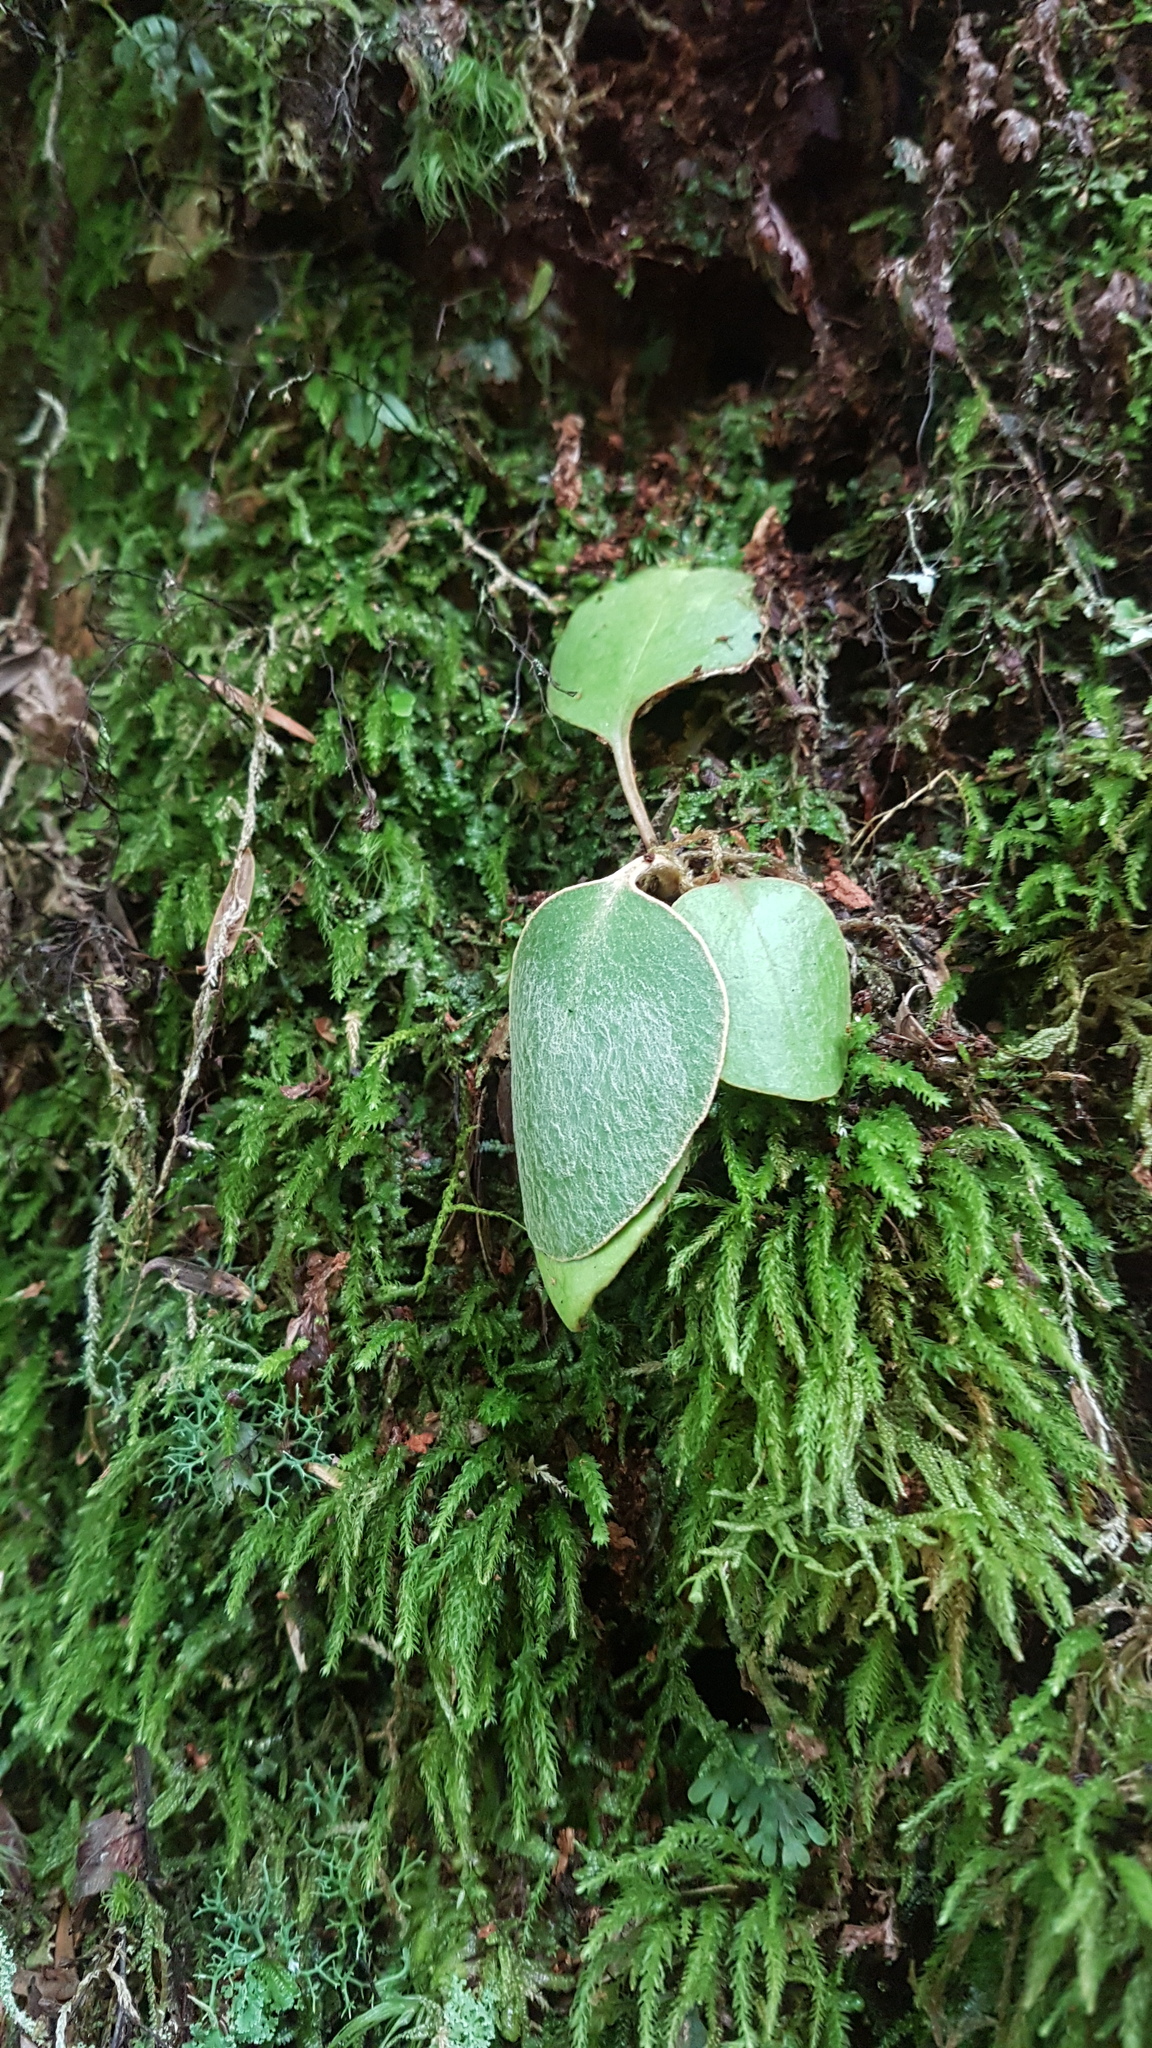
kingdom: Plantae
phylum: Tracheophyta
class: Magnoliopsida
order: Asterales
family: Asteraceae
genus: Brachyglottis
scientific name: Brachyglottis elaeagnifolia
